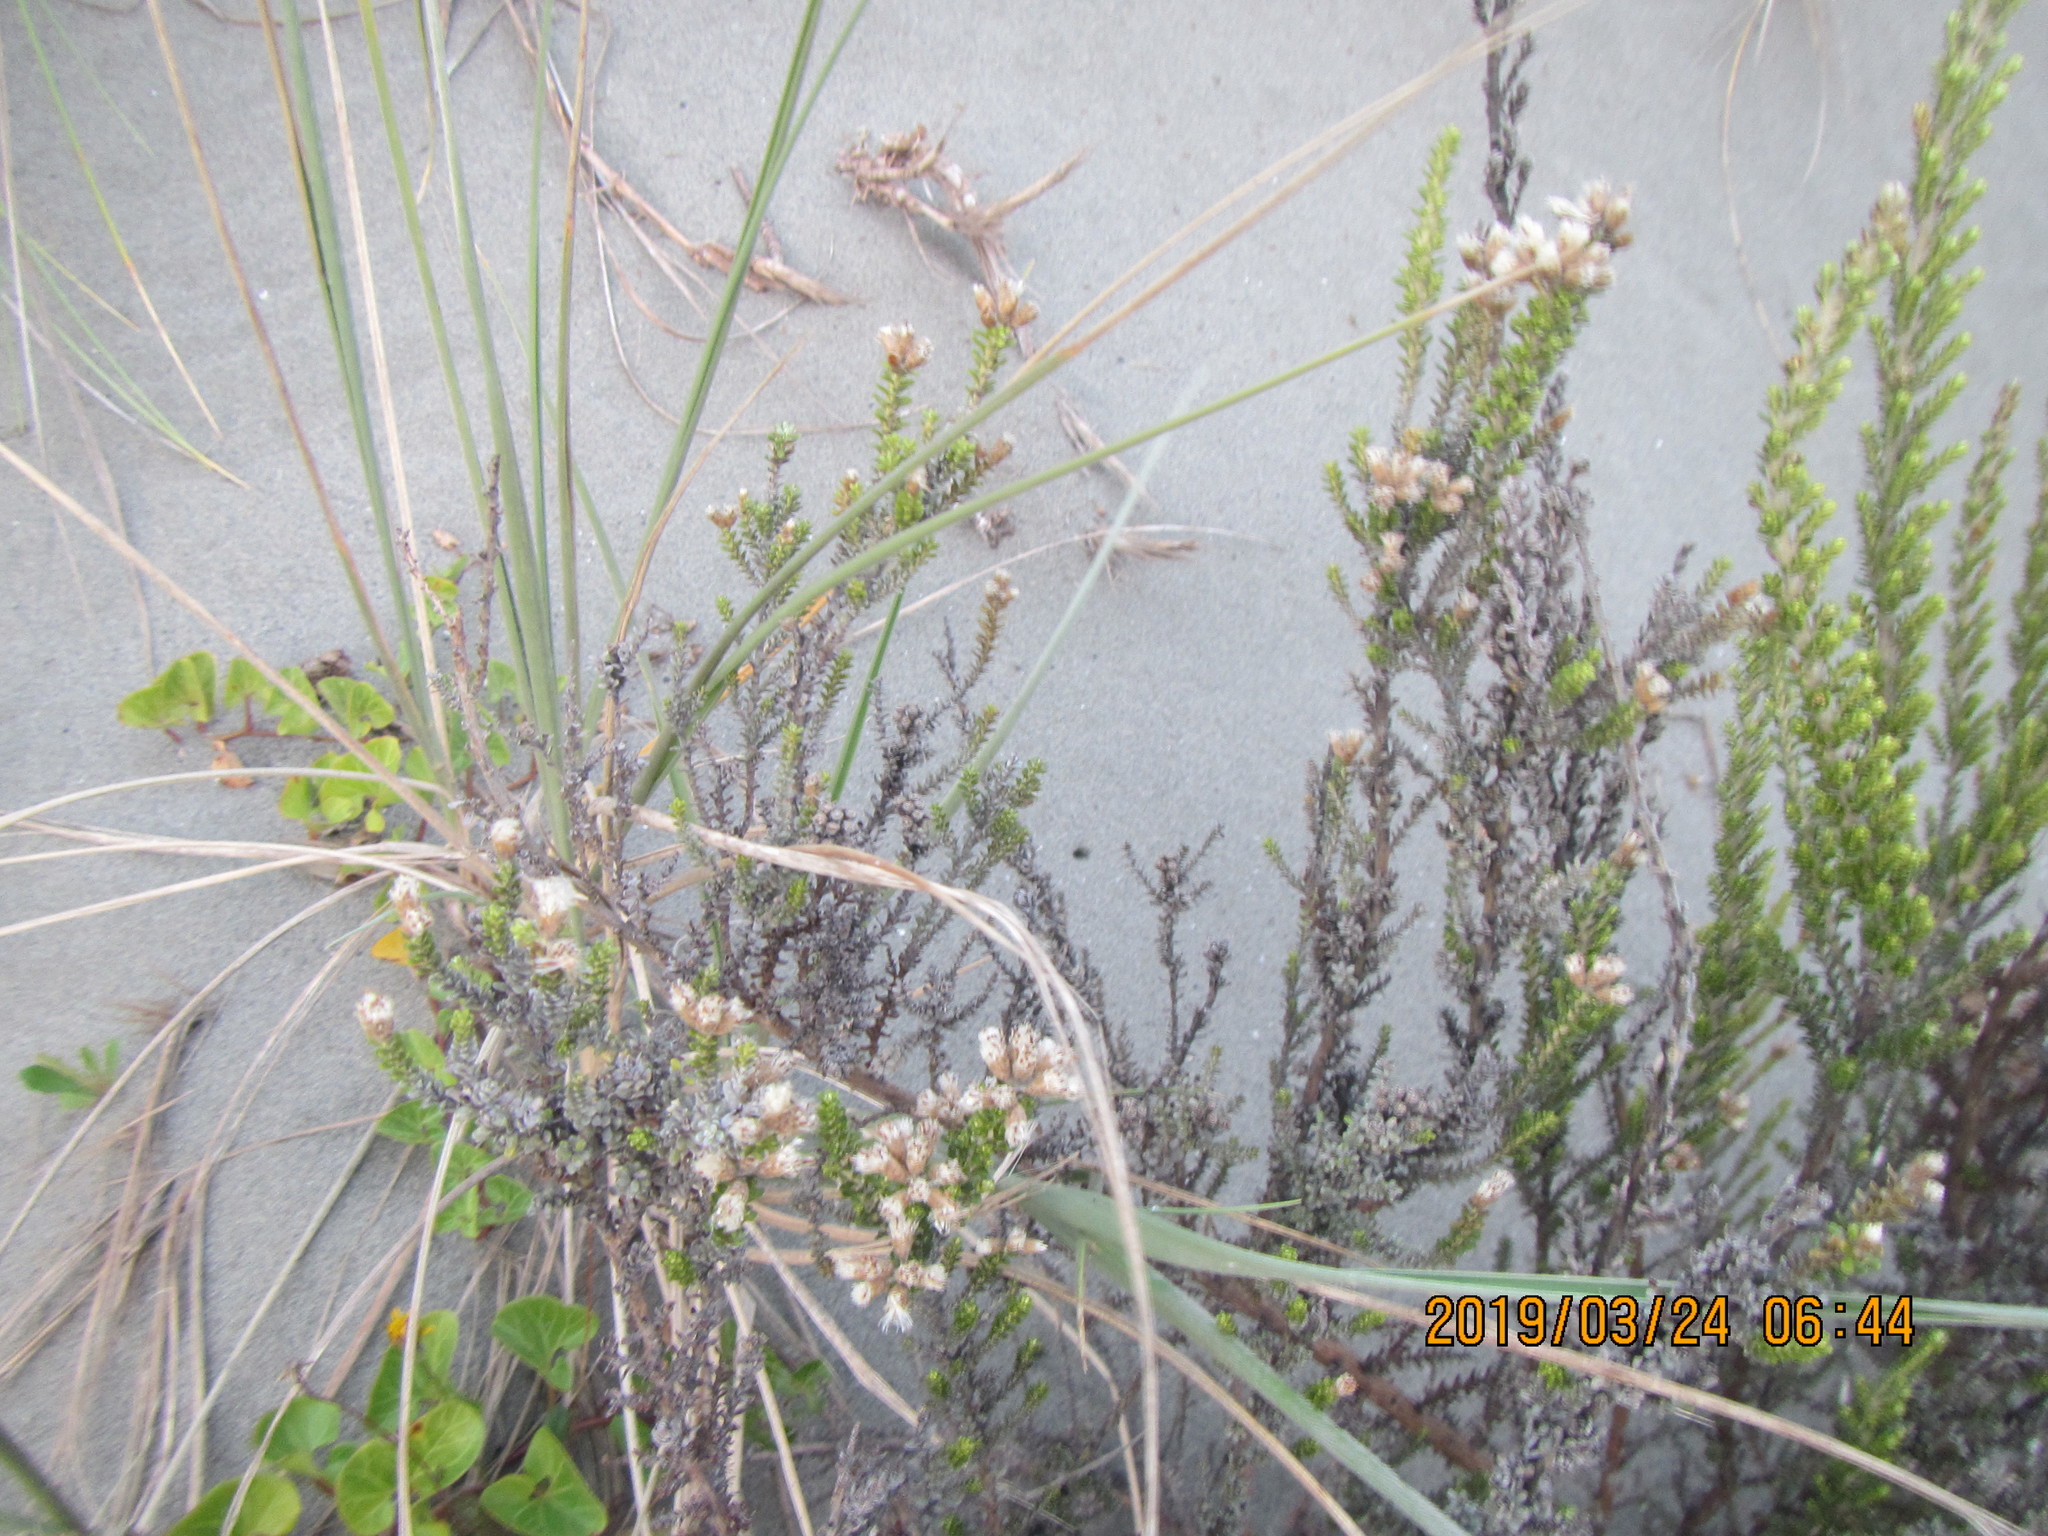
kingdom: Plantae
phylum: Tracheophyta
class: Magnoliopsida
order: Asterales
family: Asteraceae
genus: Ozothamnus
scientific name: Ozothamnus leptophyllus
